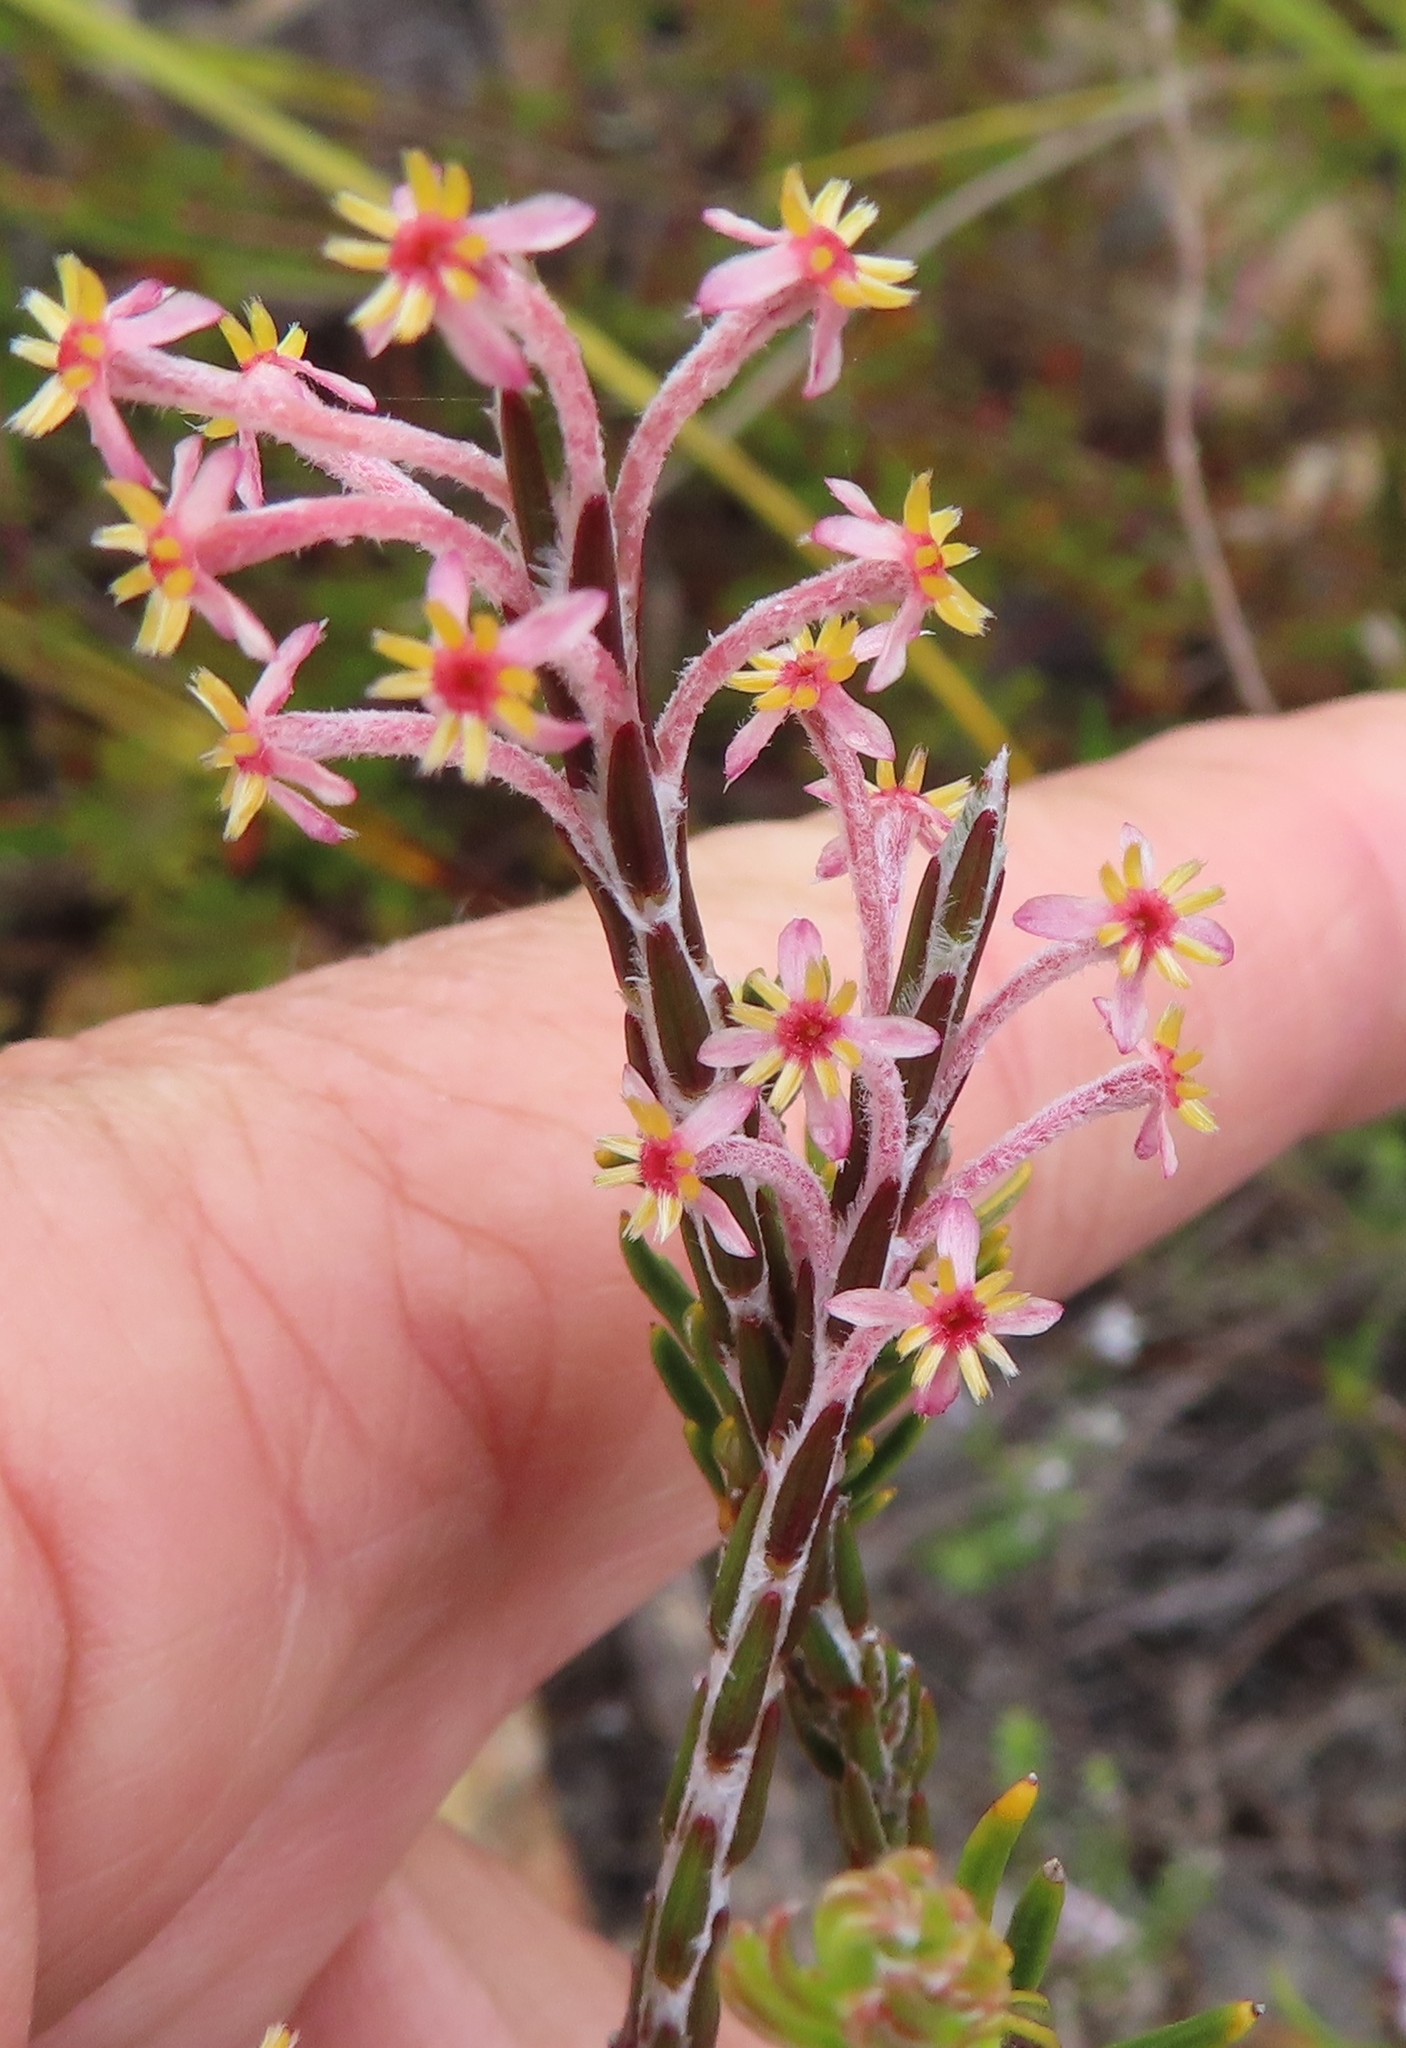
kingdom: Plantae
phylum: Tracheophyta
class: Magnoliopsida
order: Malvales
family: Thymelaeaceae
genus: Struthiola
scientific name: Struthiola ciliata
